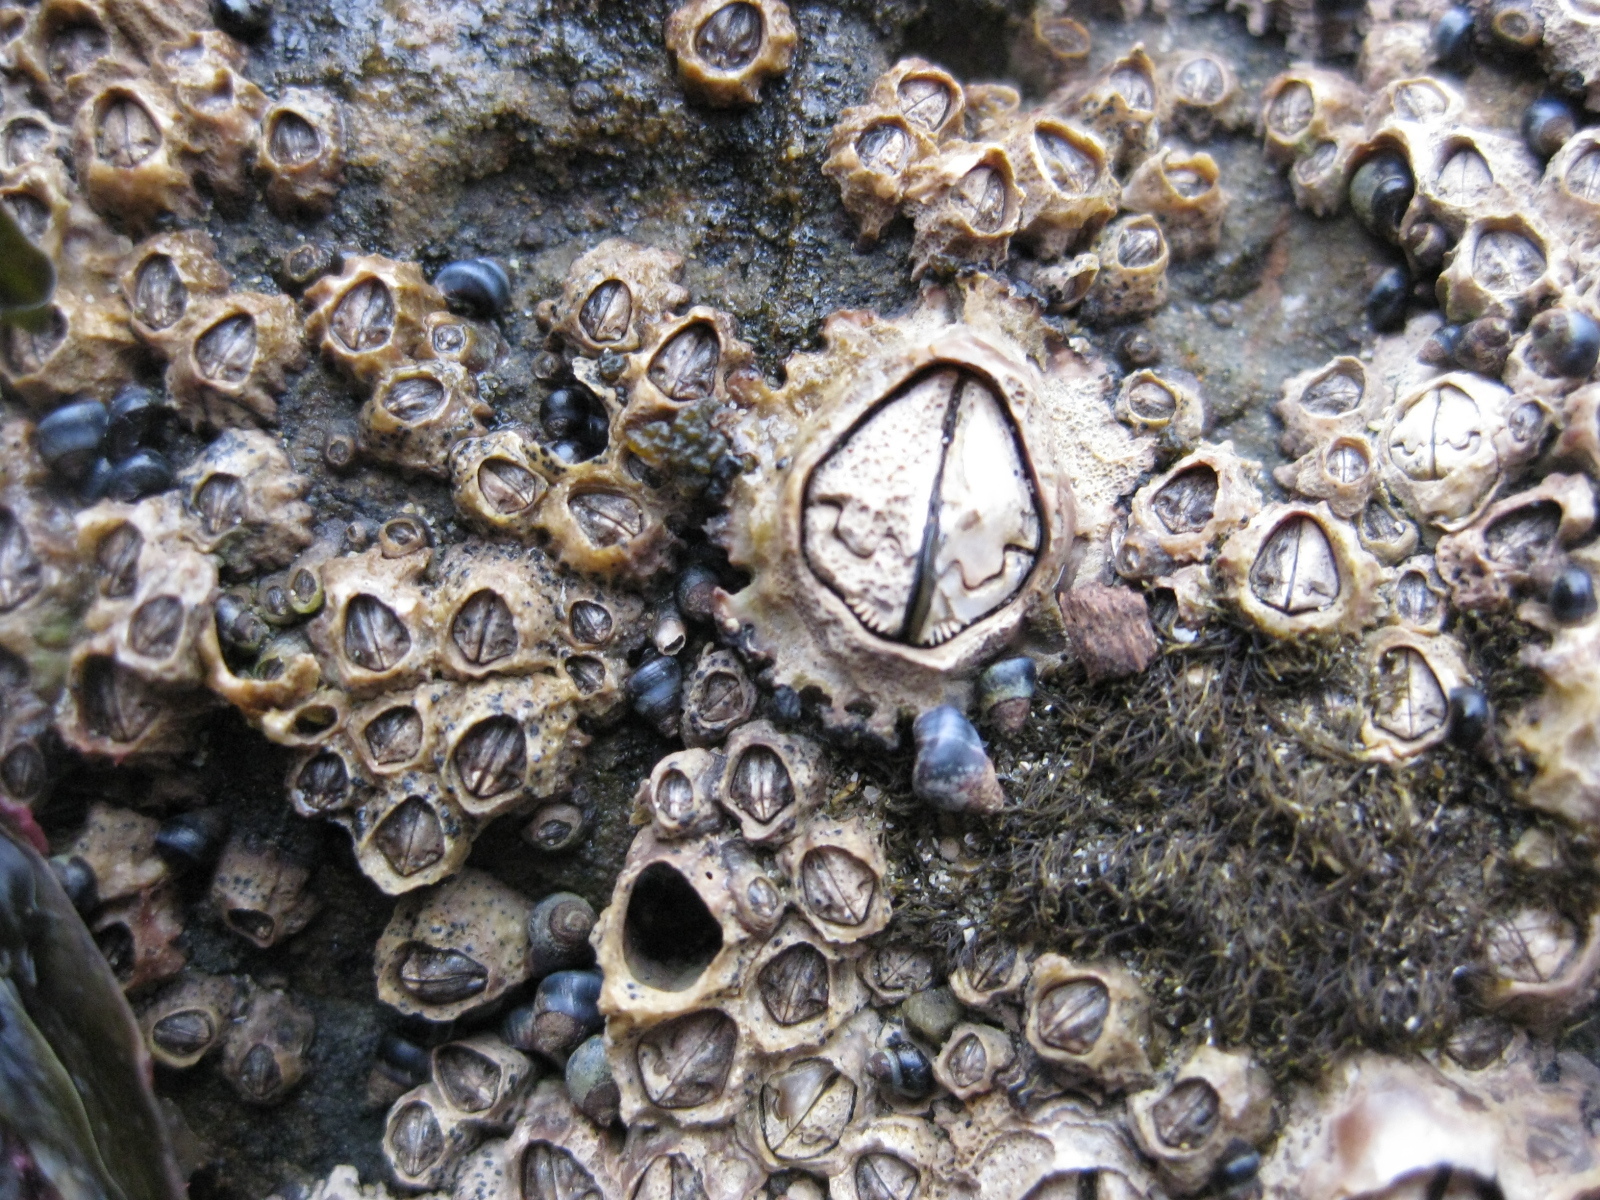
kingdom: Animalia
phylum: Arthropoda
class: Maxillopoda
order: Sessilia
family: Chthamalidae
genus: Chamaesipho
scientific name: Chamaesipho brunnea
